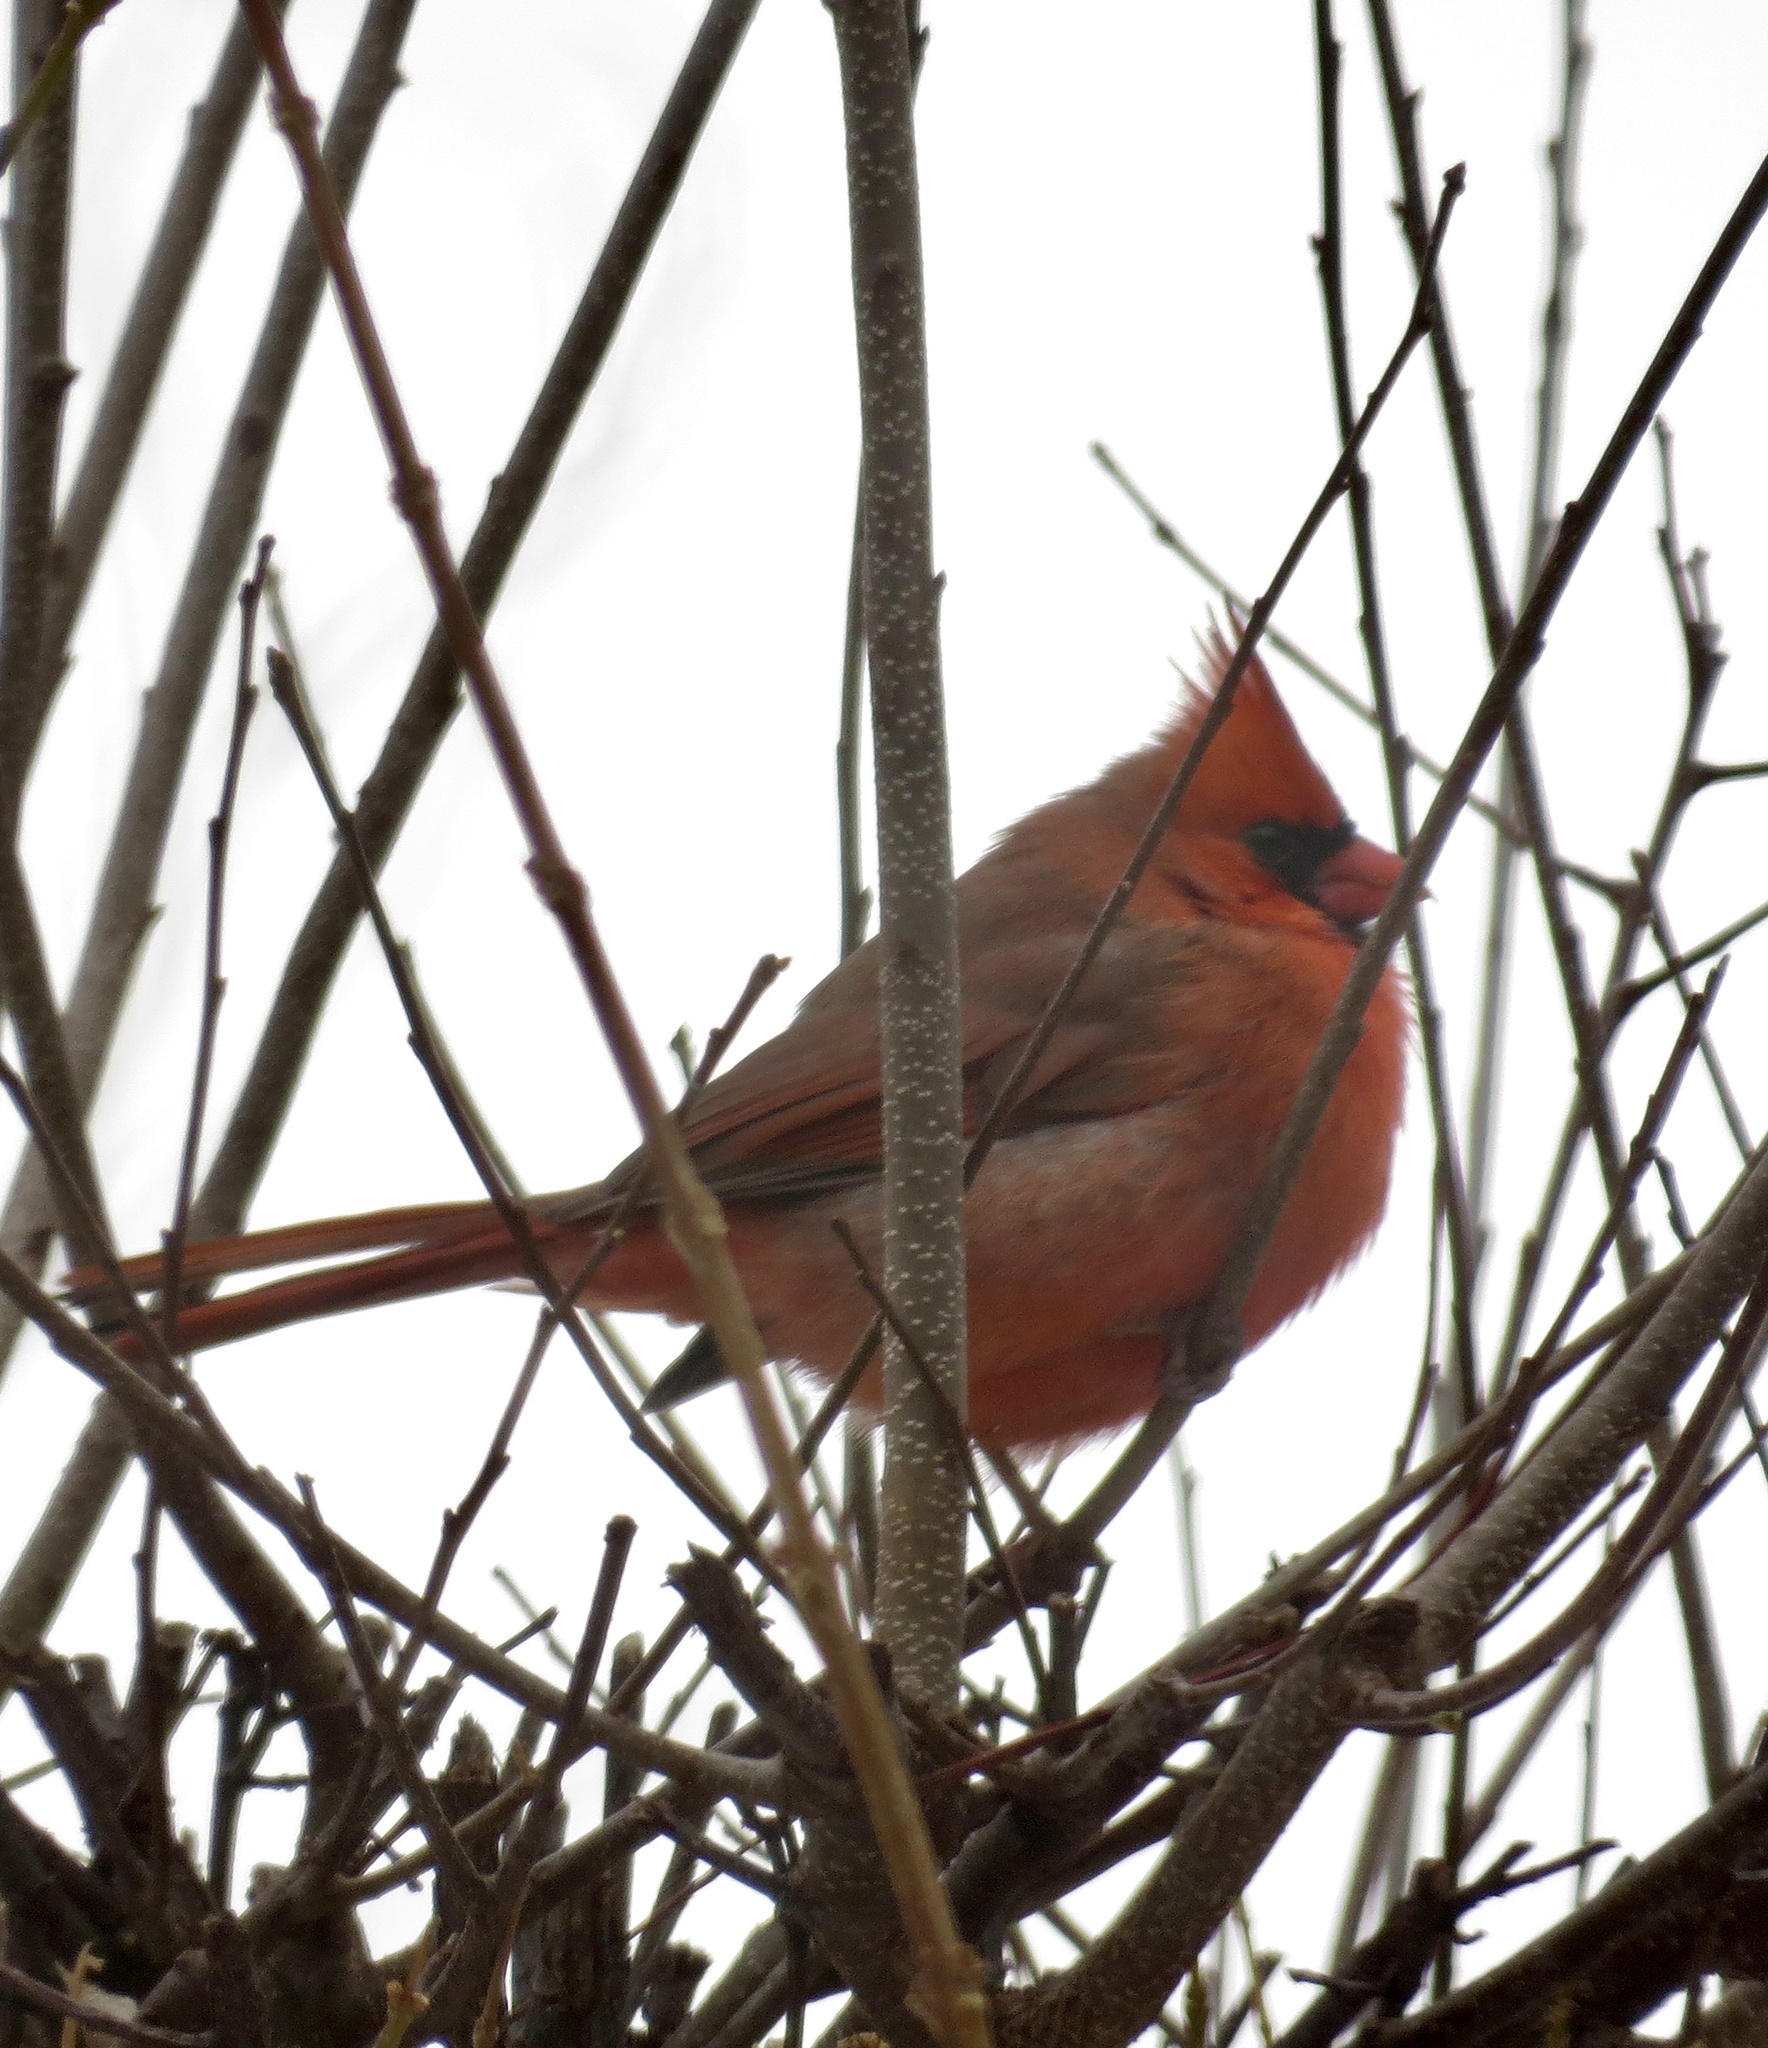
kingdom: Animalia
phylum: Chordata
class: Aves
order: Passeriformes
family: Cardinalidae
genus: Cardinalis
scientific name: Cardinalis cardinalis
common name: Northern cardinal
